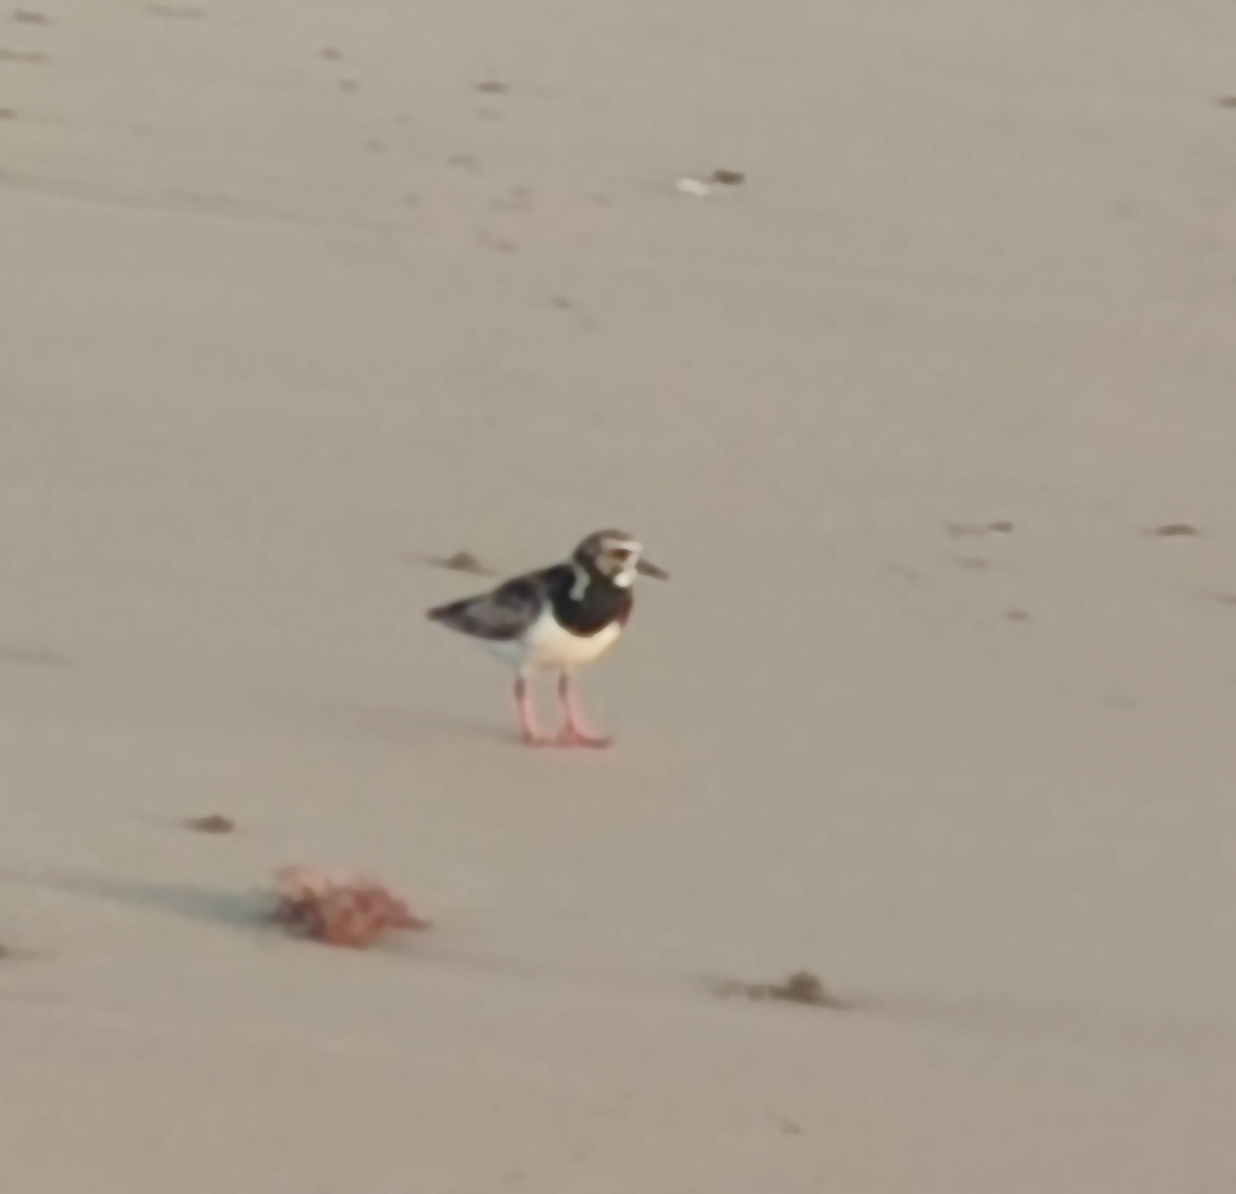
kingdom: Animalia
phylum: Chordata
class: Aves
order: Charadriiformes
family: Scolopacidae
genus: Arenaria
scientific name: Arenaria interpres
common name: Ruddy turnstone
